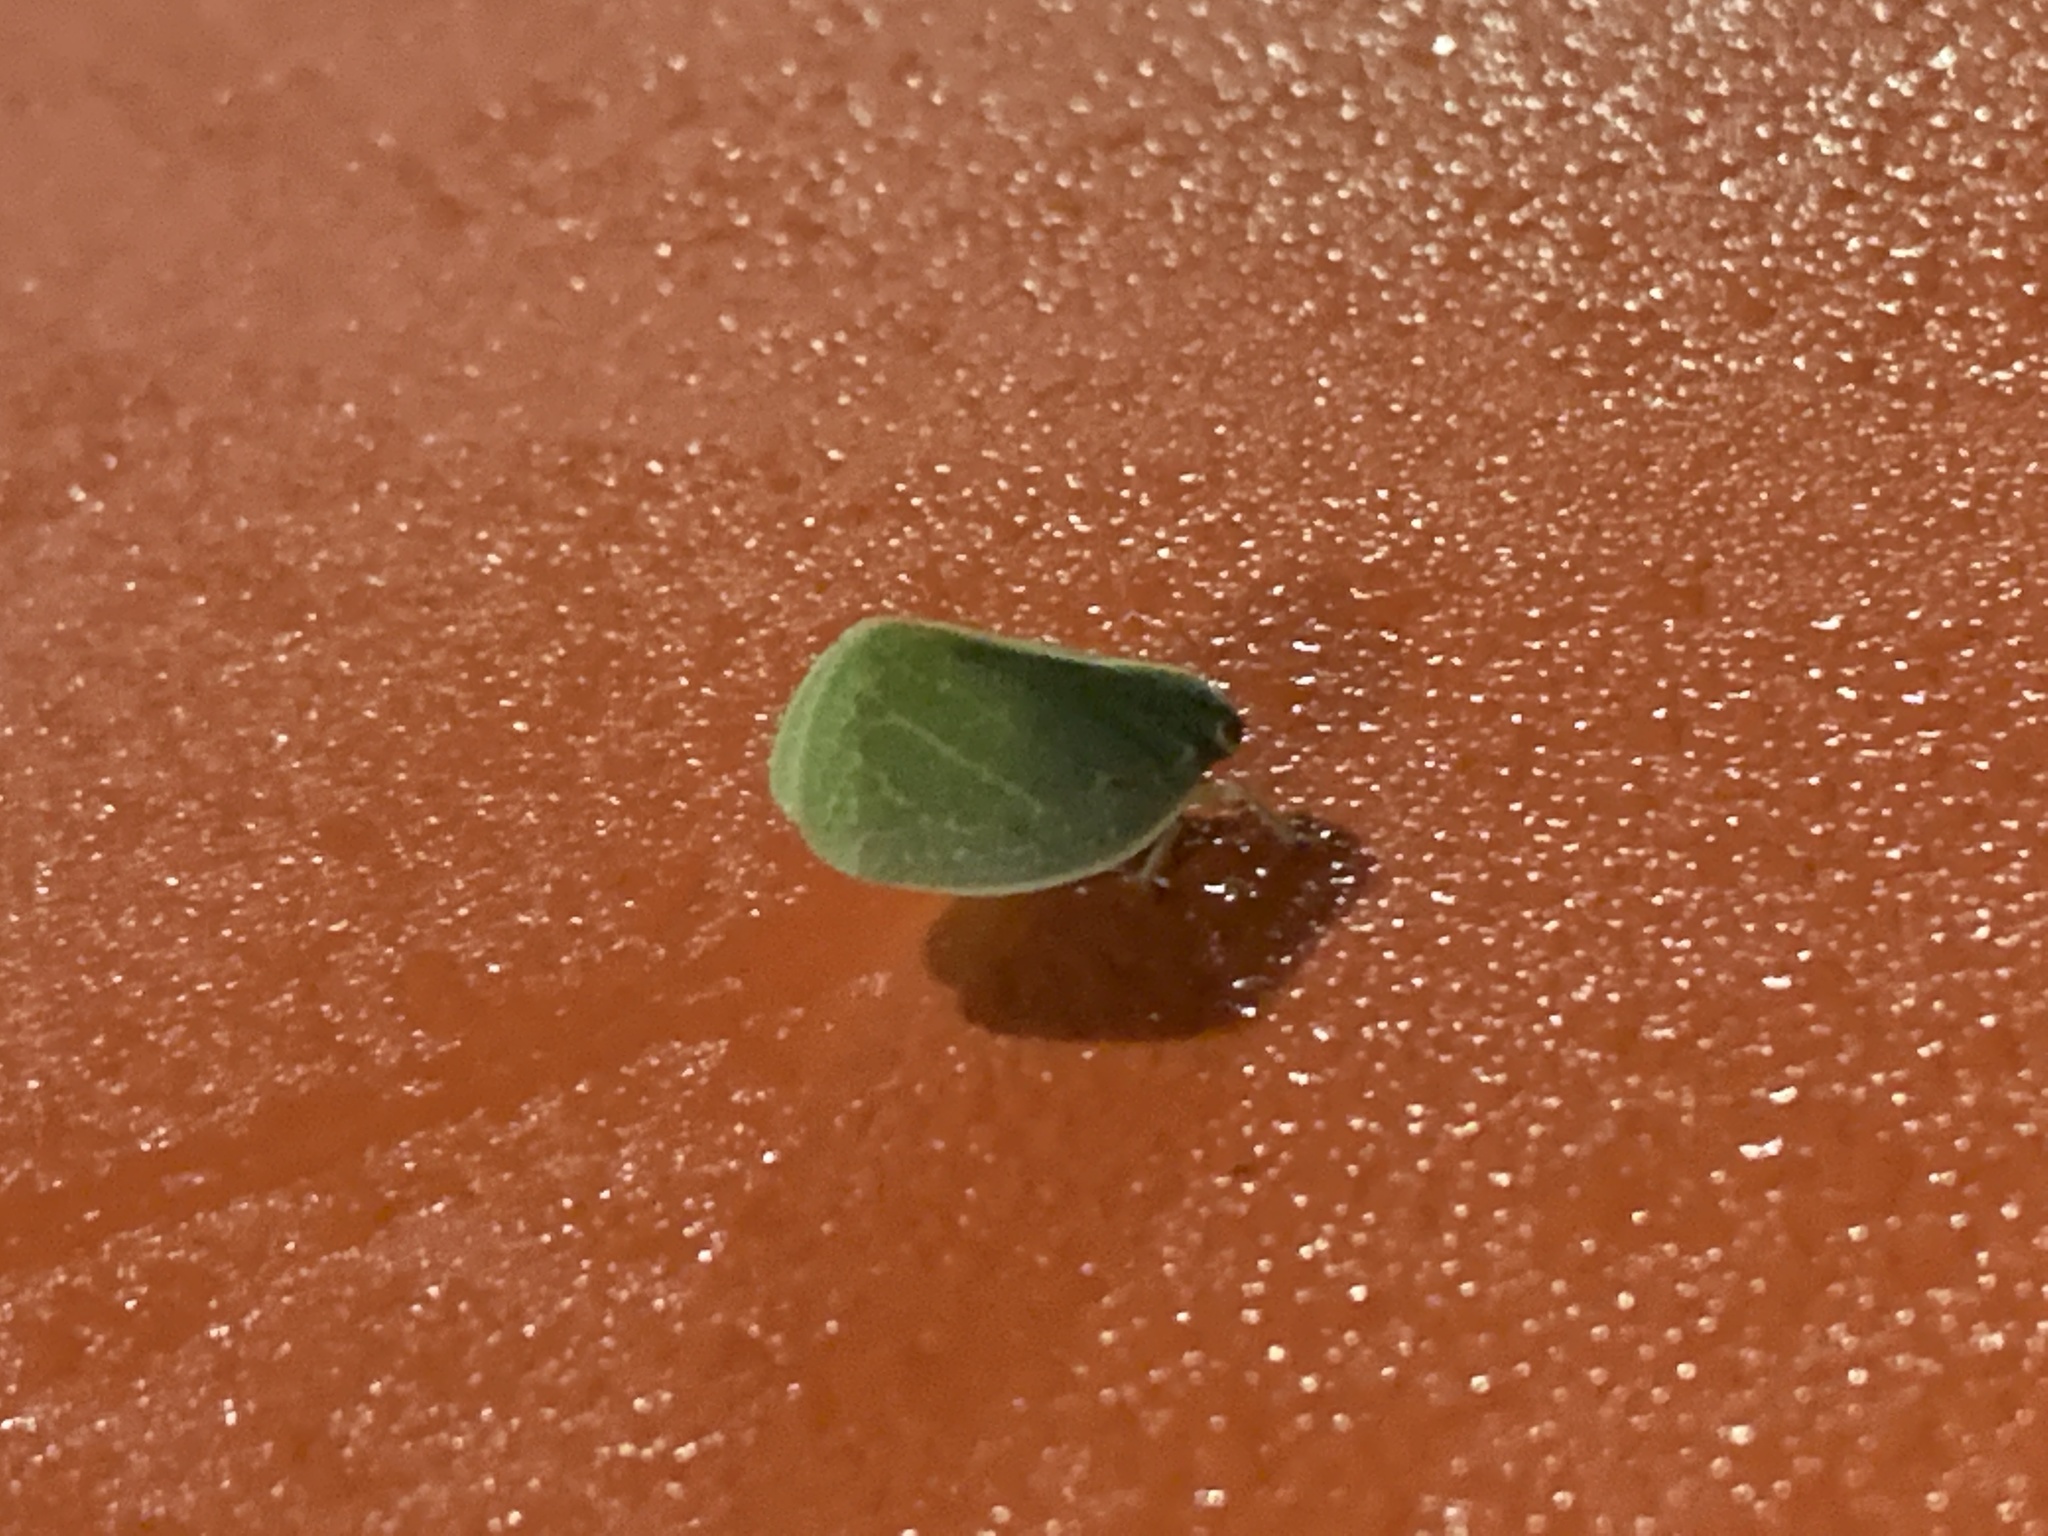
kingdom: Animalia
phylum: Arthropoda
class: Insecta
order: Hemiptera
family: Acanaloniidae
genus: Acanalonia
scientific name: Acanalonia servillei
